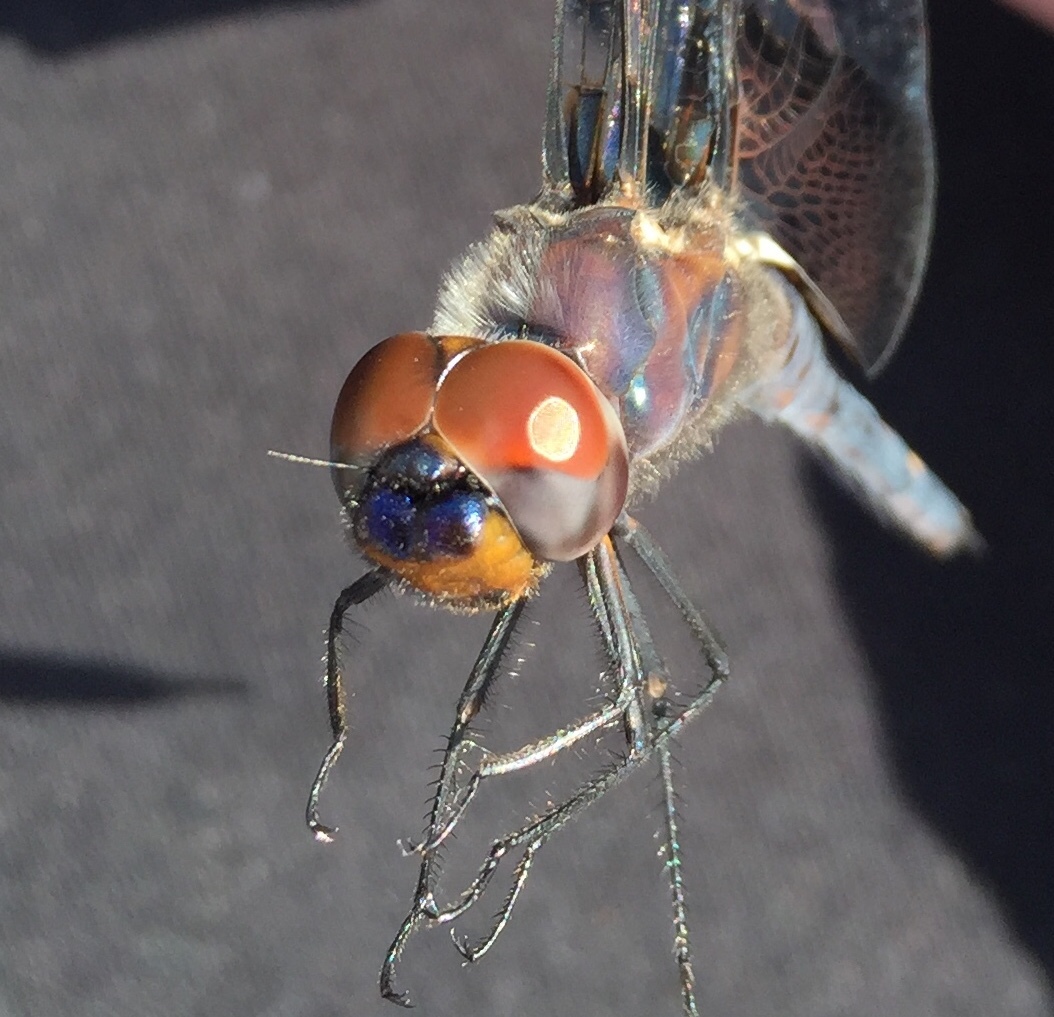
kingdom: Animalia
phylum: Arthropoda
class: Insecta
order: Odonata
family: Libellulidae
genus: Tramea
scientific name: Tramea lacerata
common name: Black saddlebags
